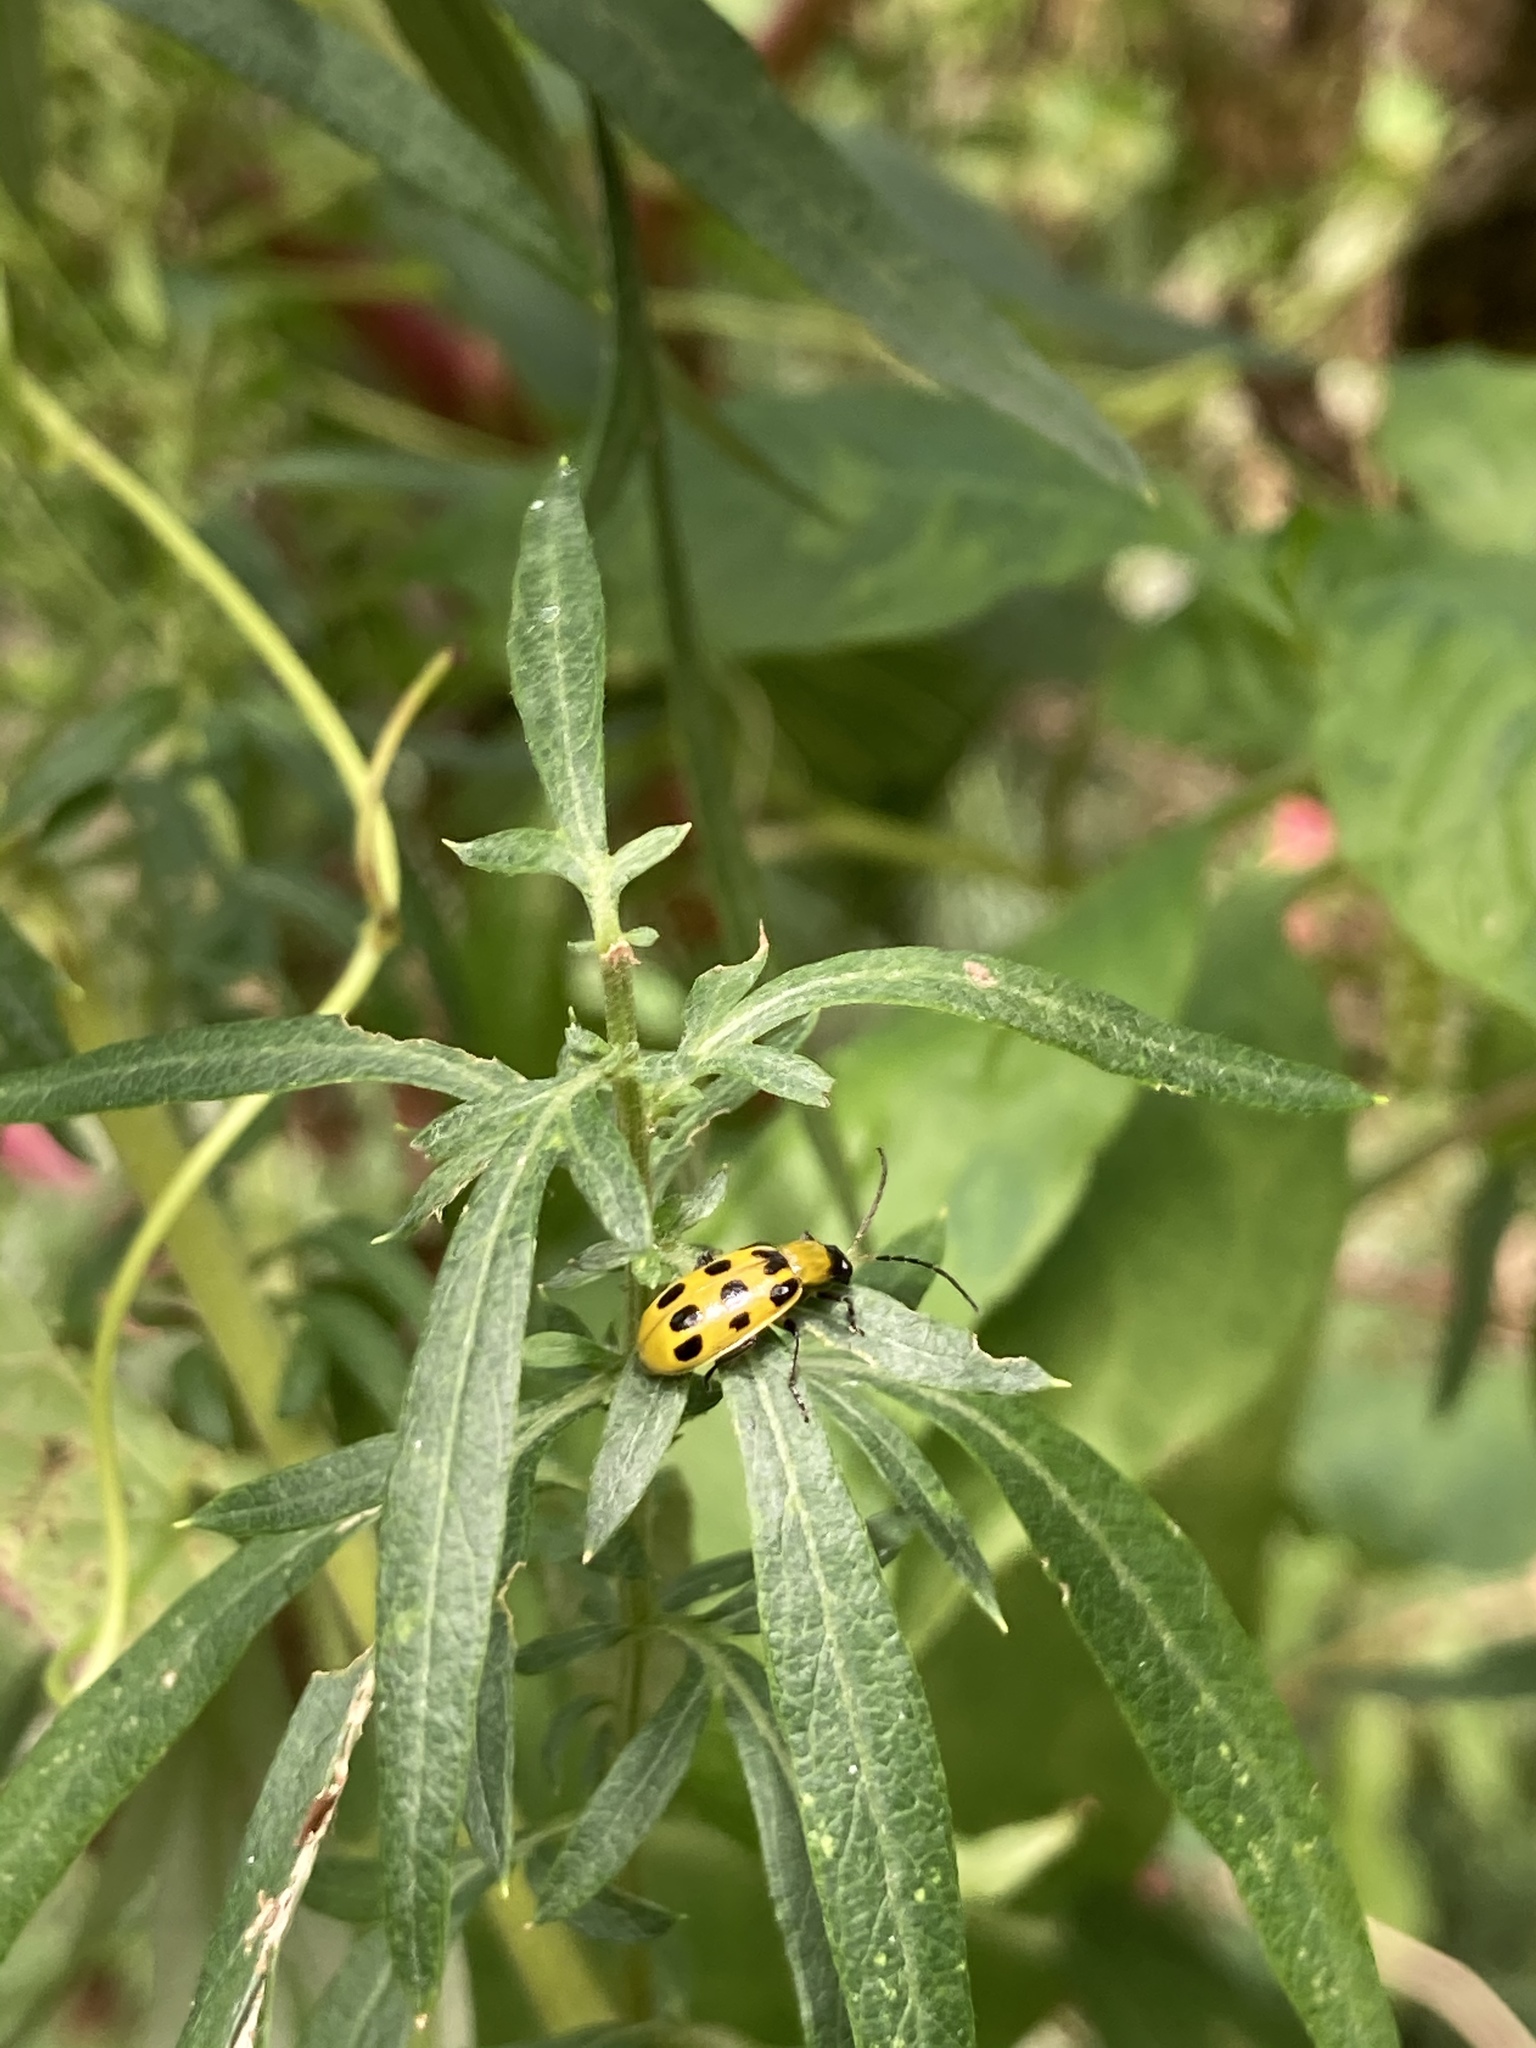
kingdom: Animalia
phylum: Arthropoda
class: Insecta
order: Coleoptera
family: Chrysomelidae
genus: Diabrotica
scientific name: Diabrotica undecimpunctata
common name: Spotted cucumber beetle
